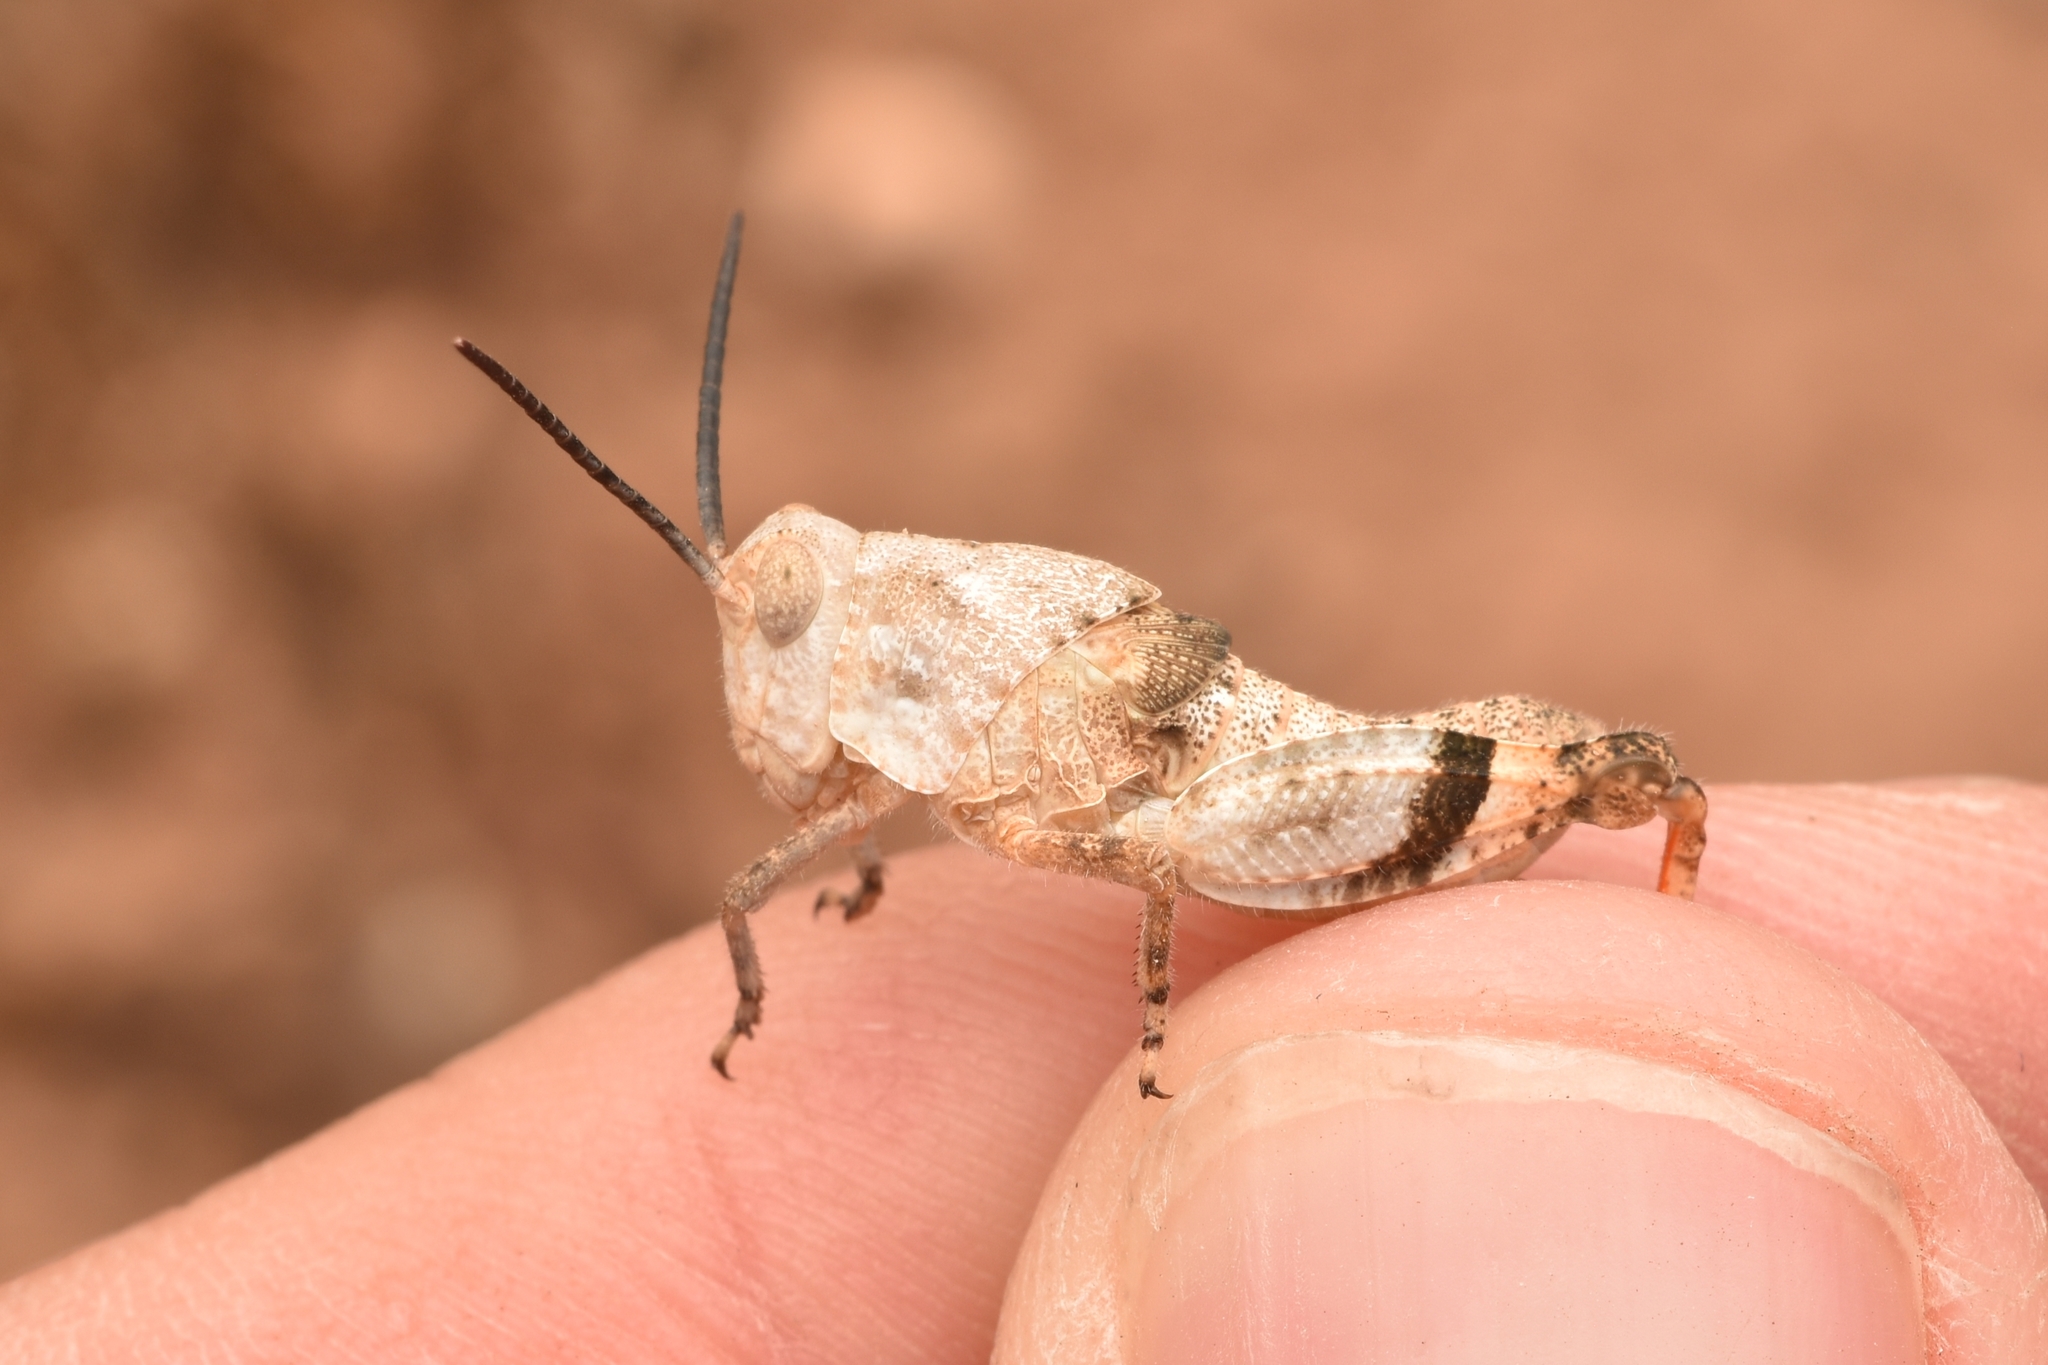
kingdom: Animalia
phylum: Arthropoda
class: Insecta
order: Orthoptera
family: Acrididae
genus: Hadrotettix
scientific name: Hadrotettix trifasciatus
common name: Threebanded grasshopper
